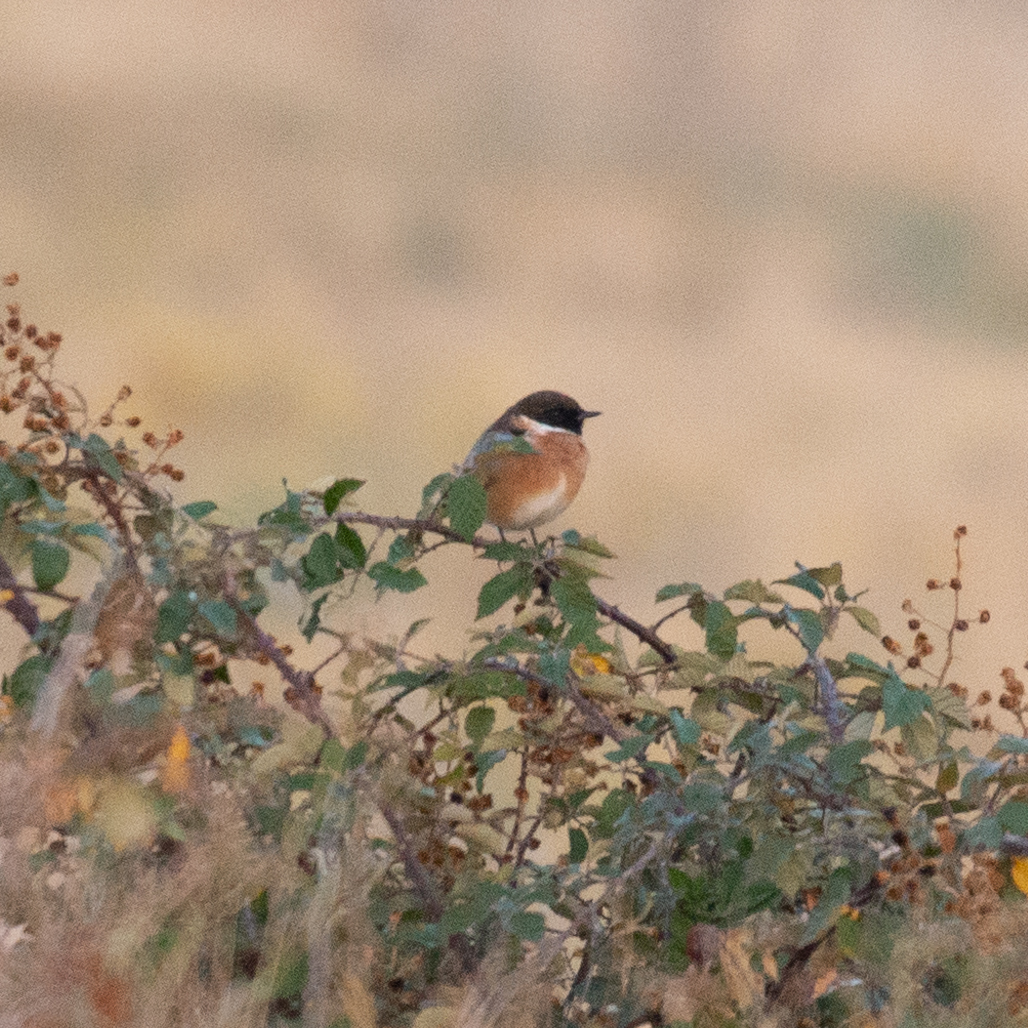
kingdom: Animalia
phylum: Chordata
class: Aves
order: Passeriformes
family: Muscicapidae
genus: Saxicola
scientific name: Saxicola rubicola
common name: European stonechat
